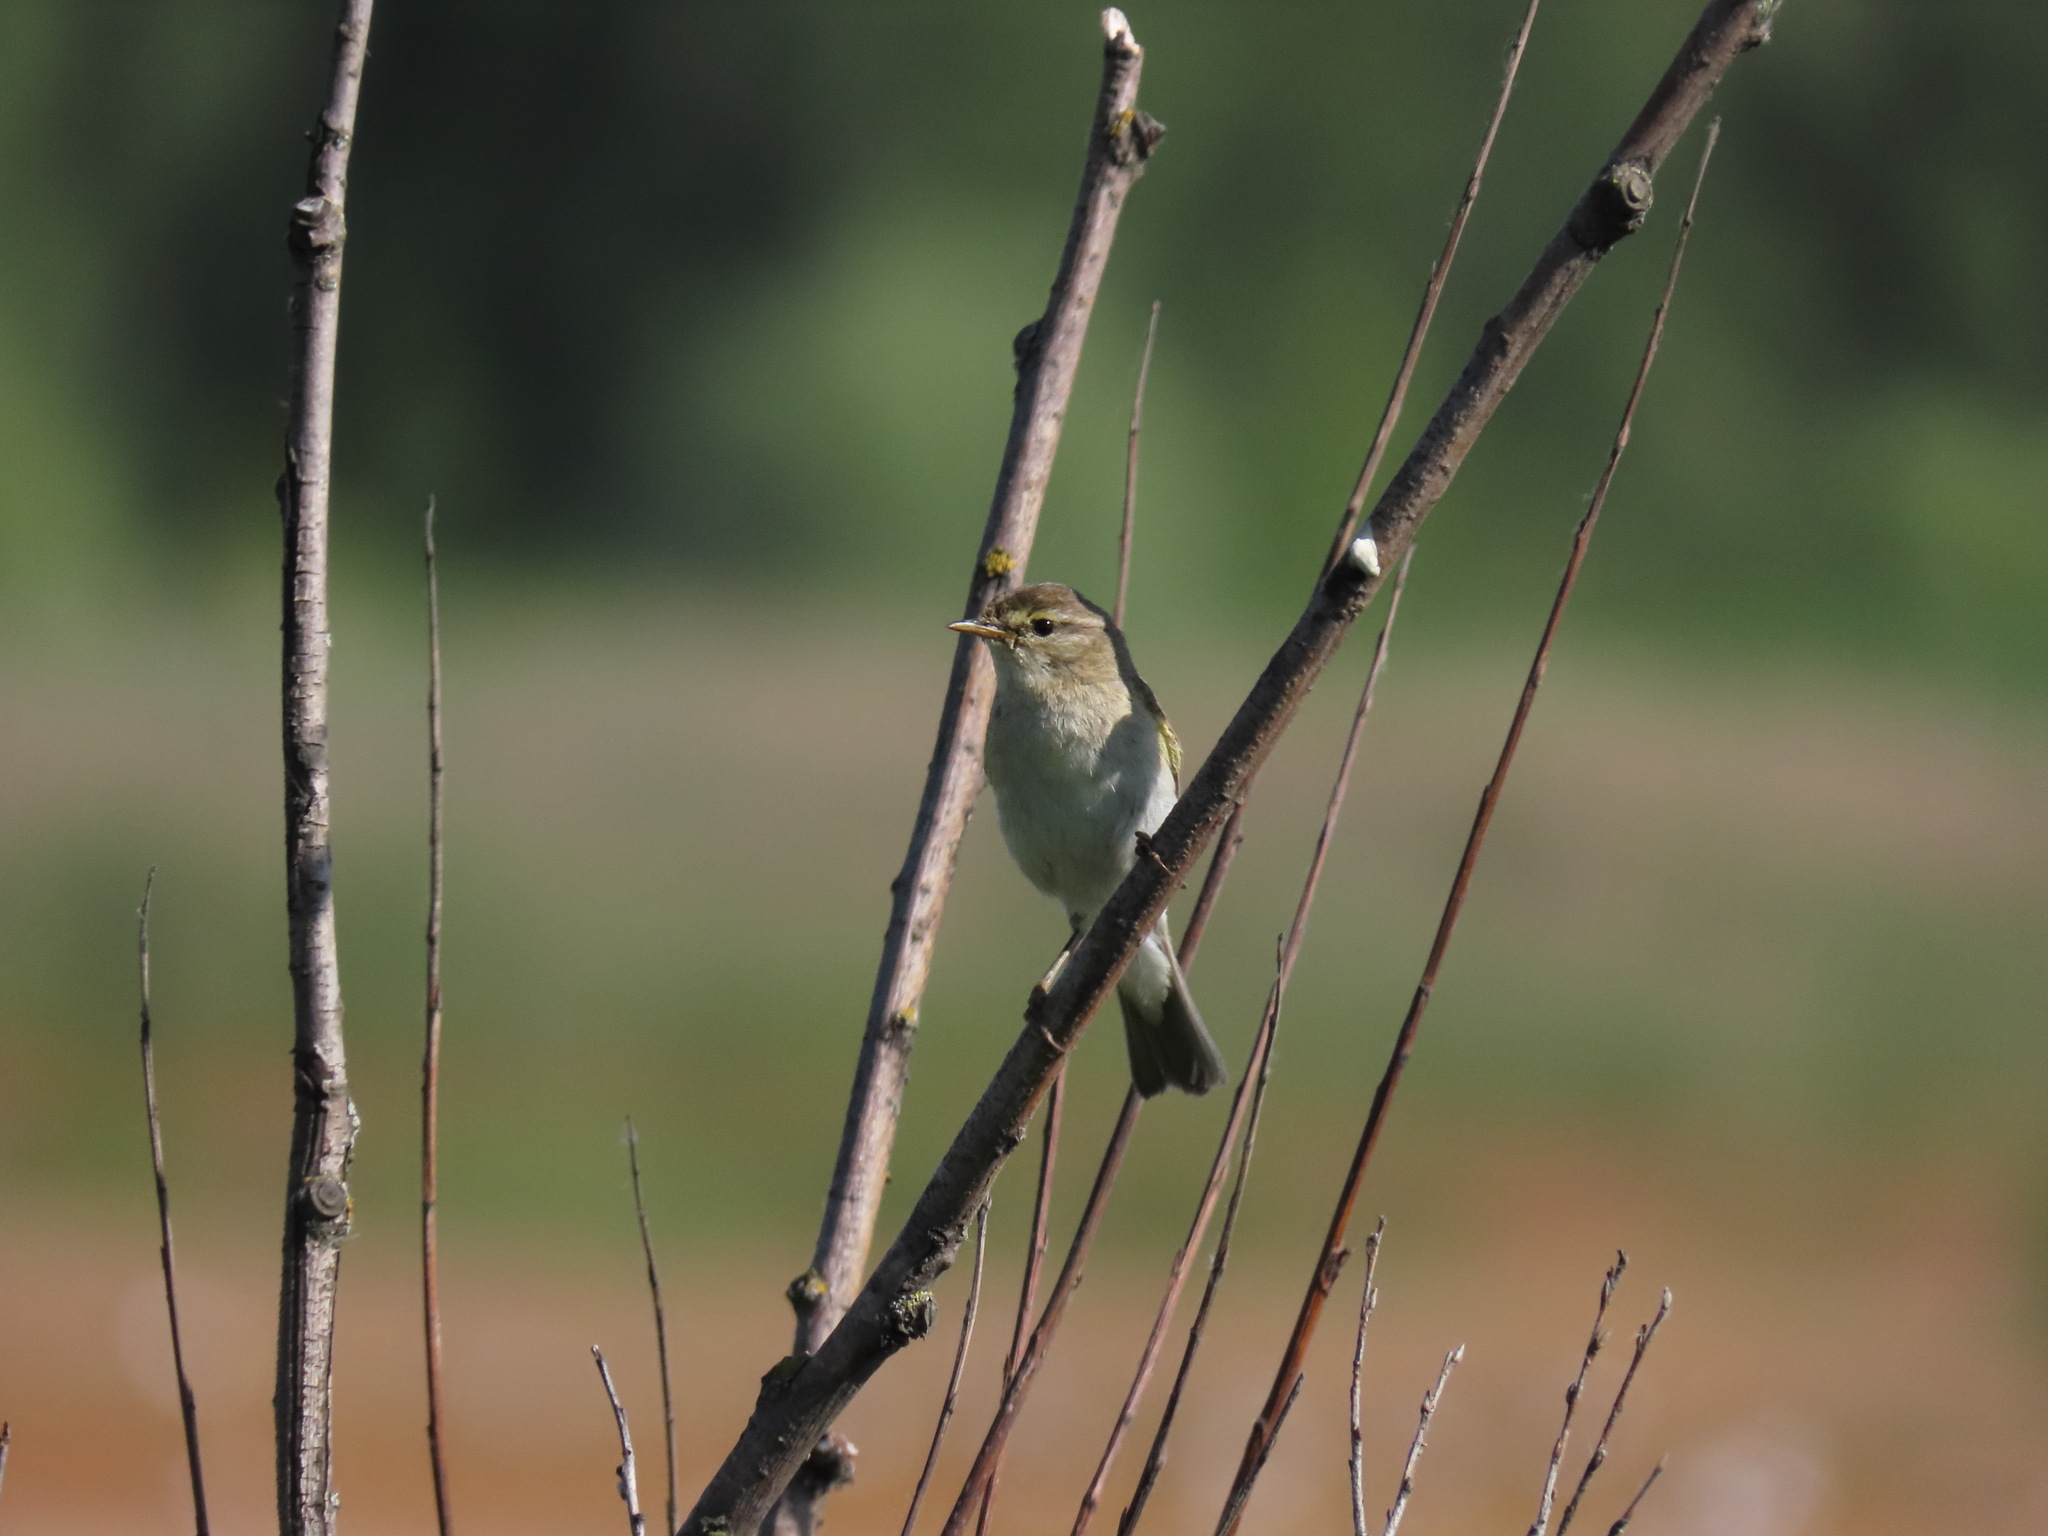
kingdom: Animalia
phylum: Chordata
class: Aves
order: Passeriformes
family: Phylloscopidae
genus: Phylloscopus
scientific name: Phylloscopus trochilus
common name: Willow warbler
